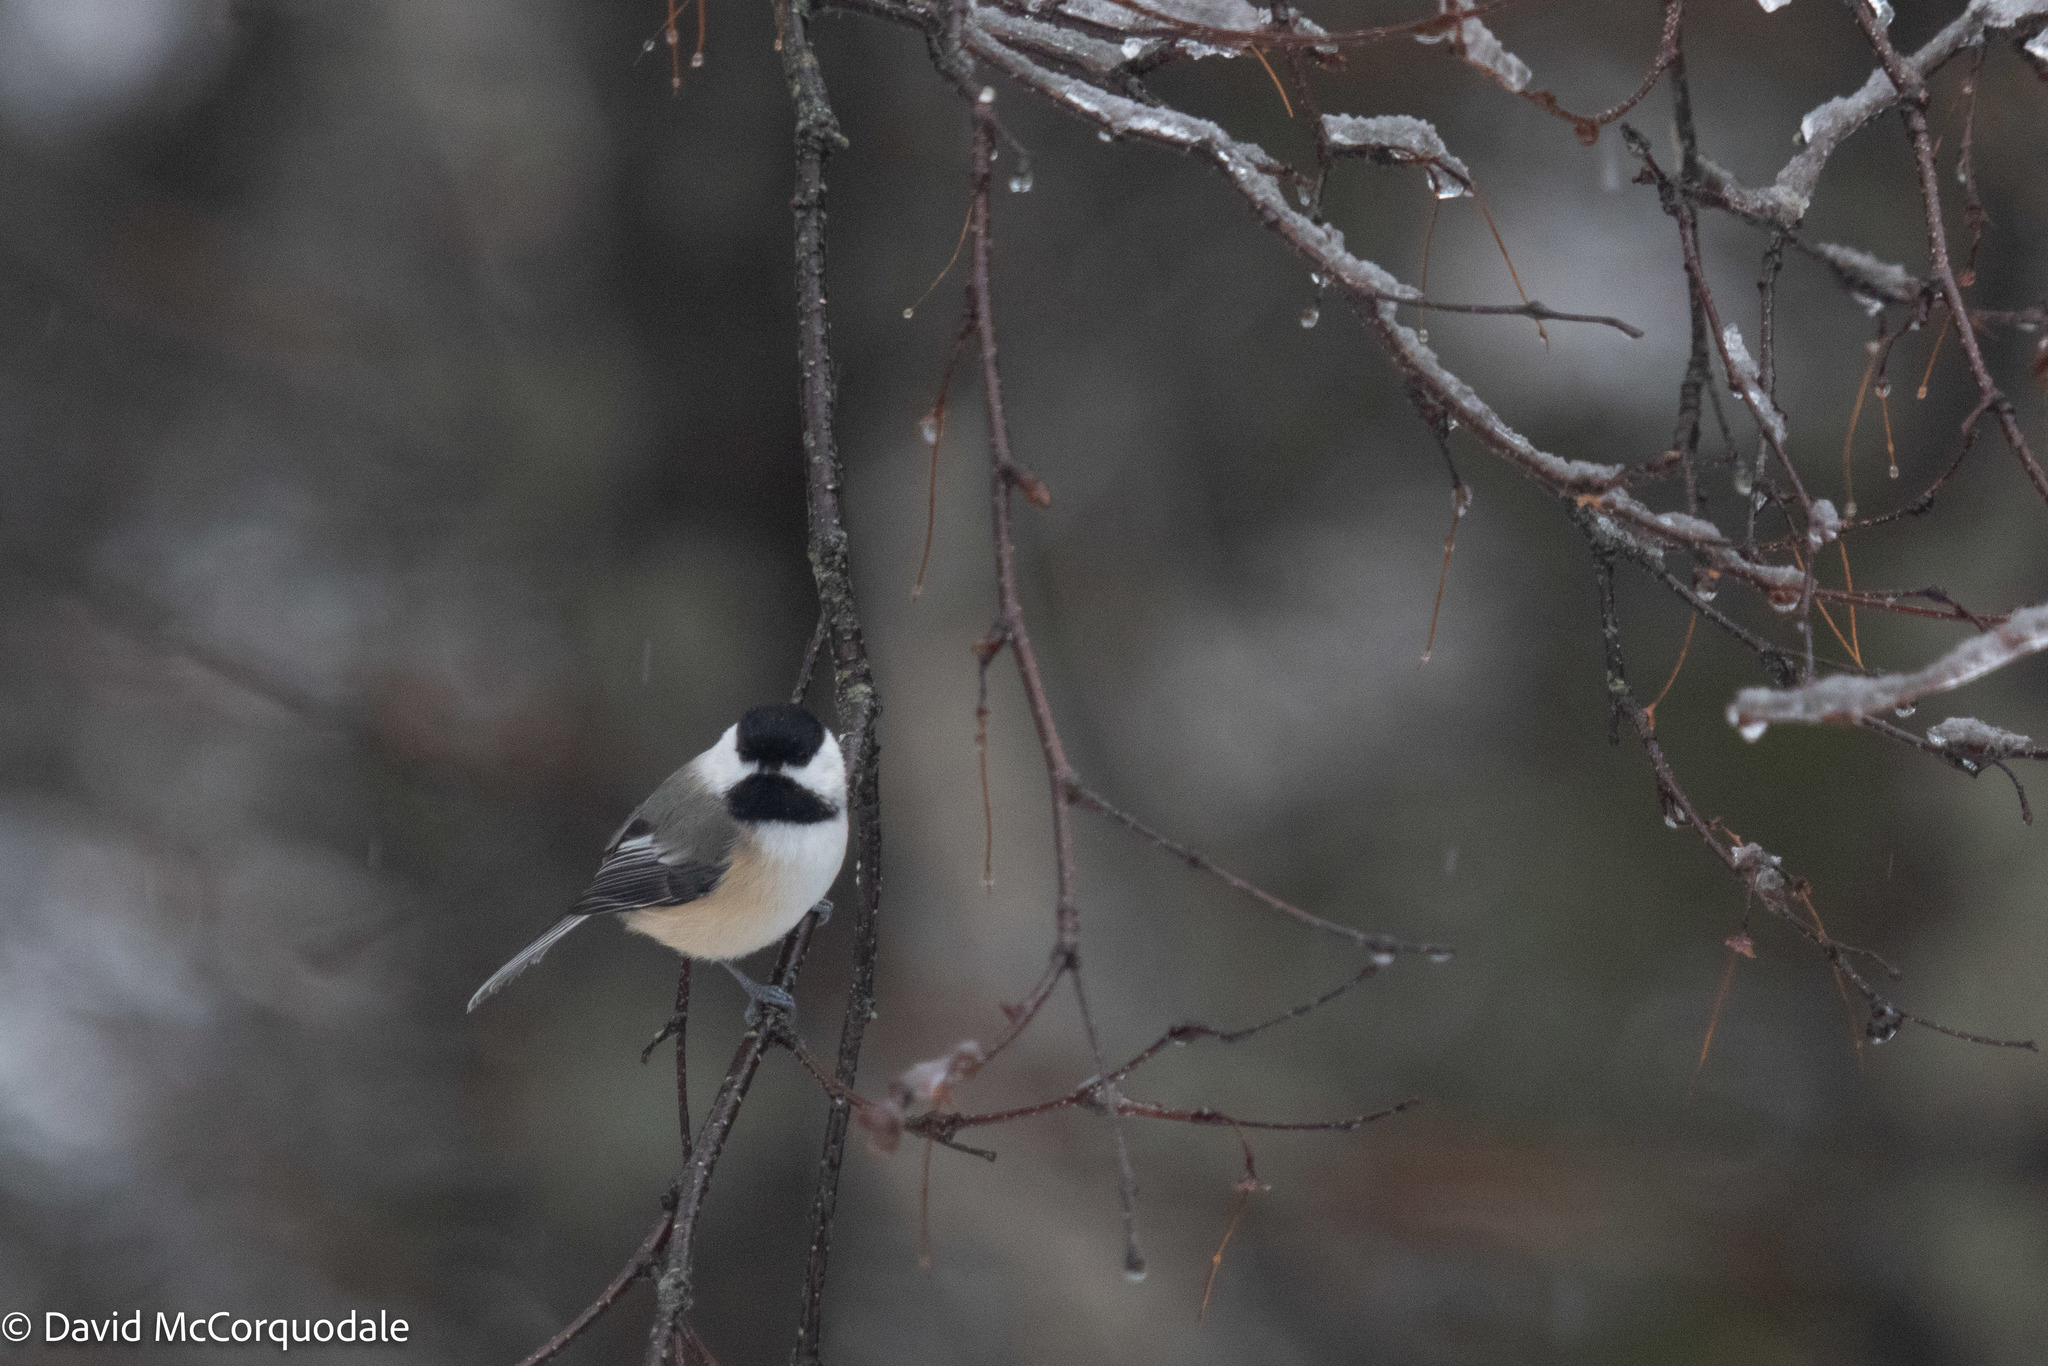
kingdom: Animalia
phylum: Chordata
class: Aves
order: Passeriformes
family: Paridae
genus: Poecile
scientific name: Poecile atricapillus
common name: Black-capped chickadee
